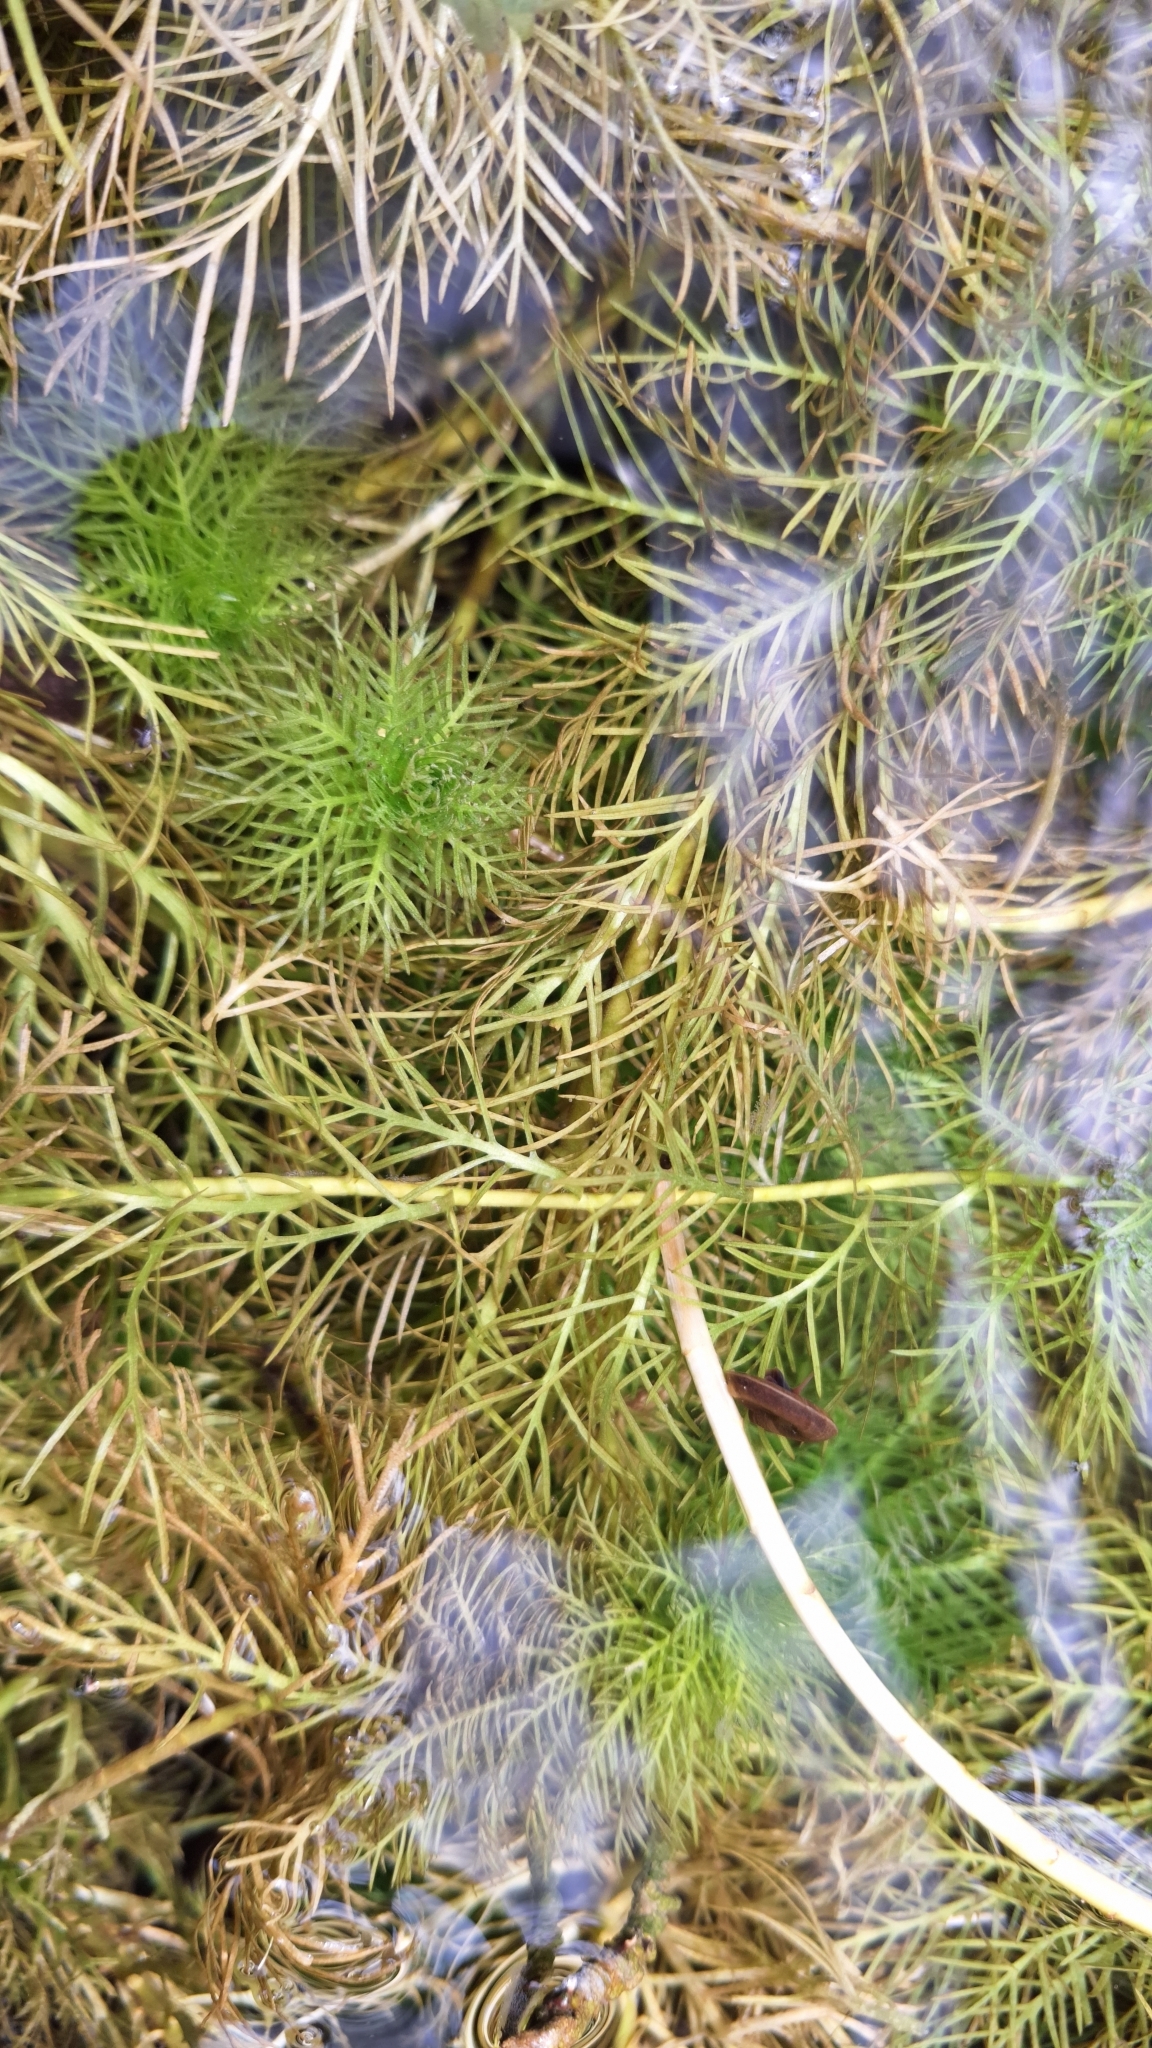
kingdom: Plantae
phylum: Tracheophyta
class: Magnoliopsida
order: Ericales
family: Primulaceae
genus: Hottonia
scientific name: Hottonia palustris
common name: Water-violet
